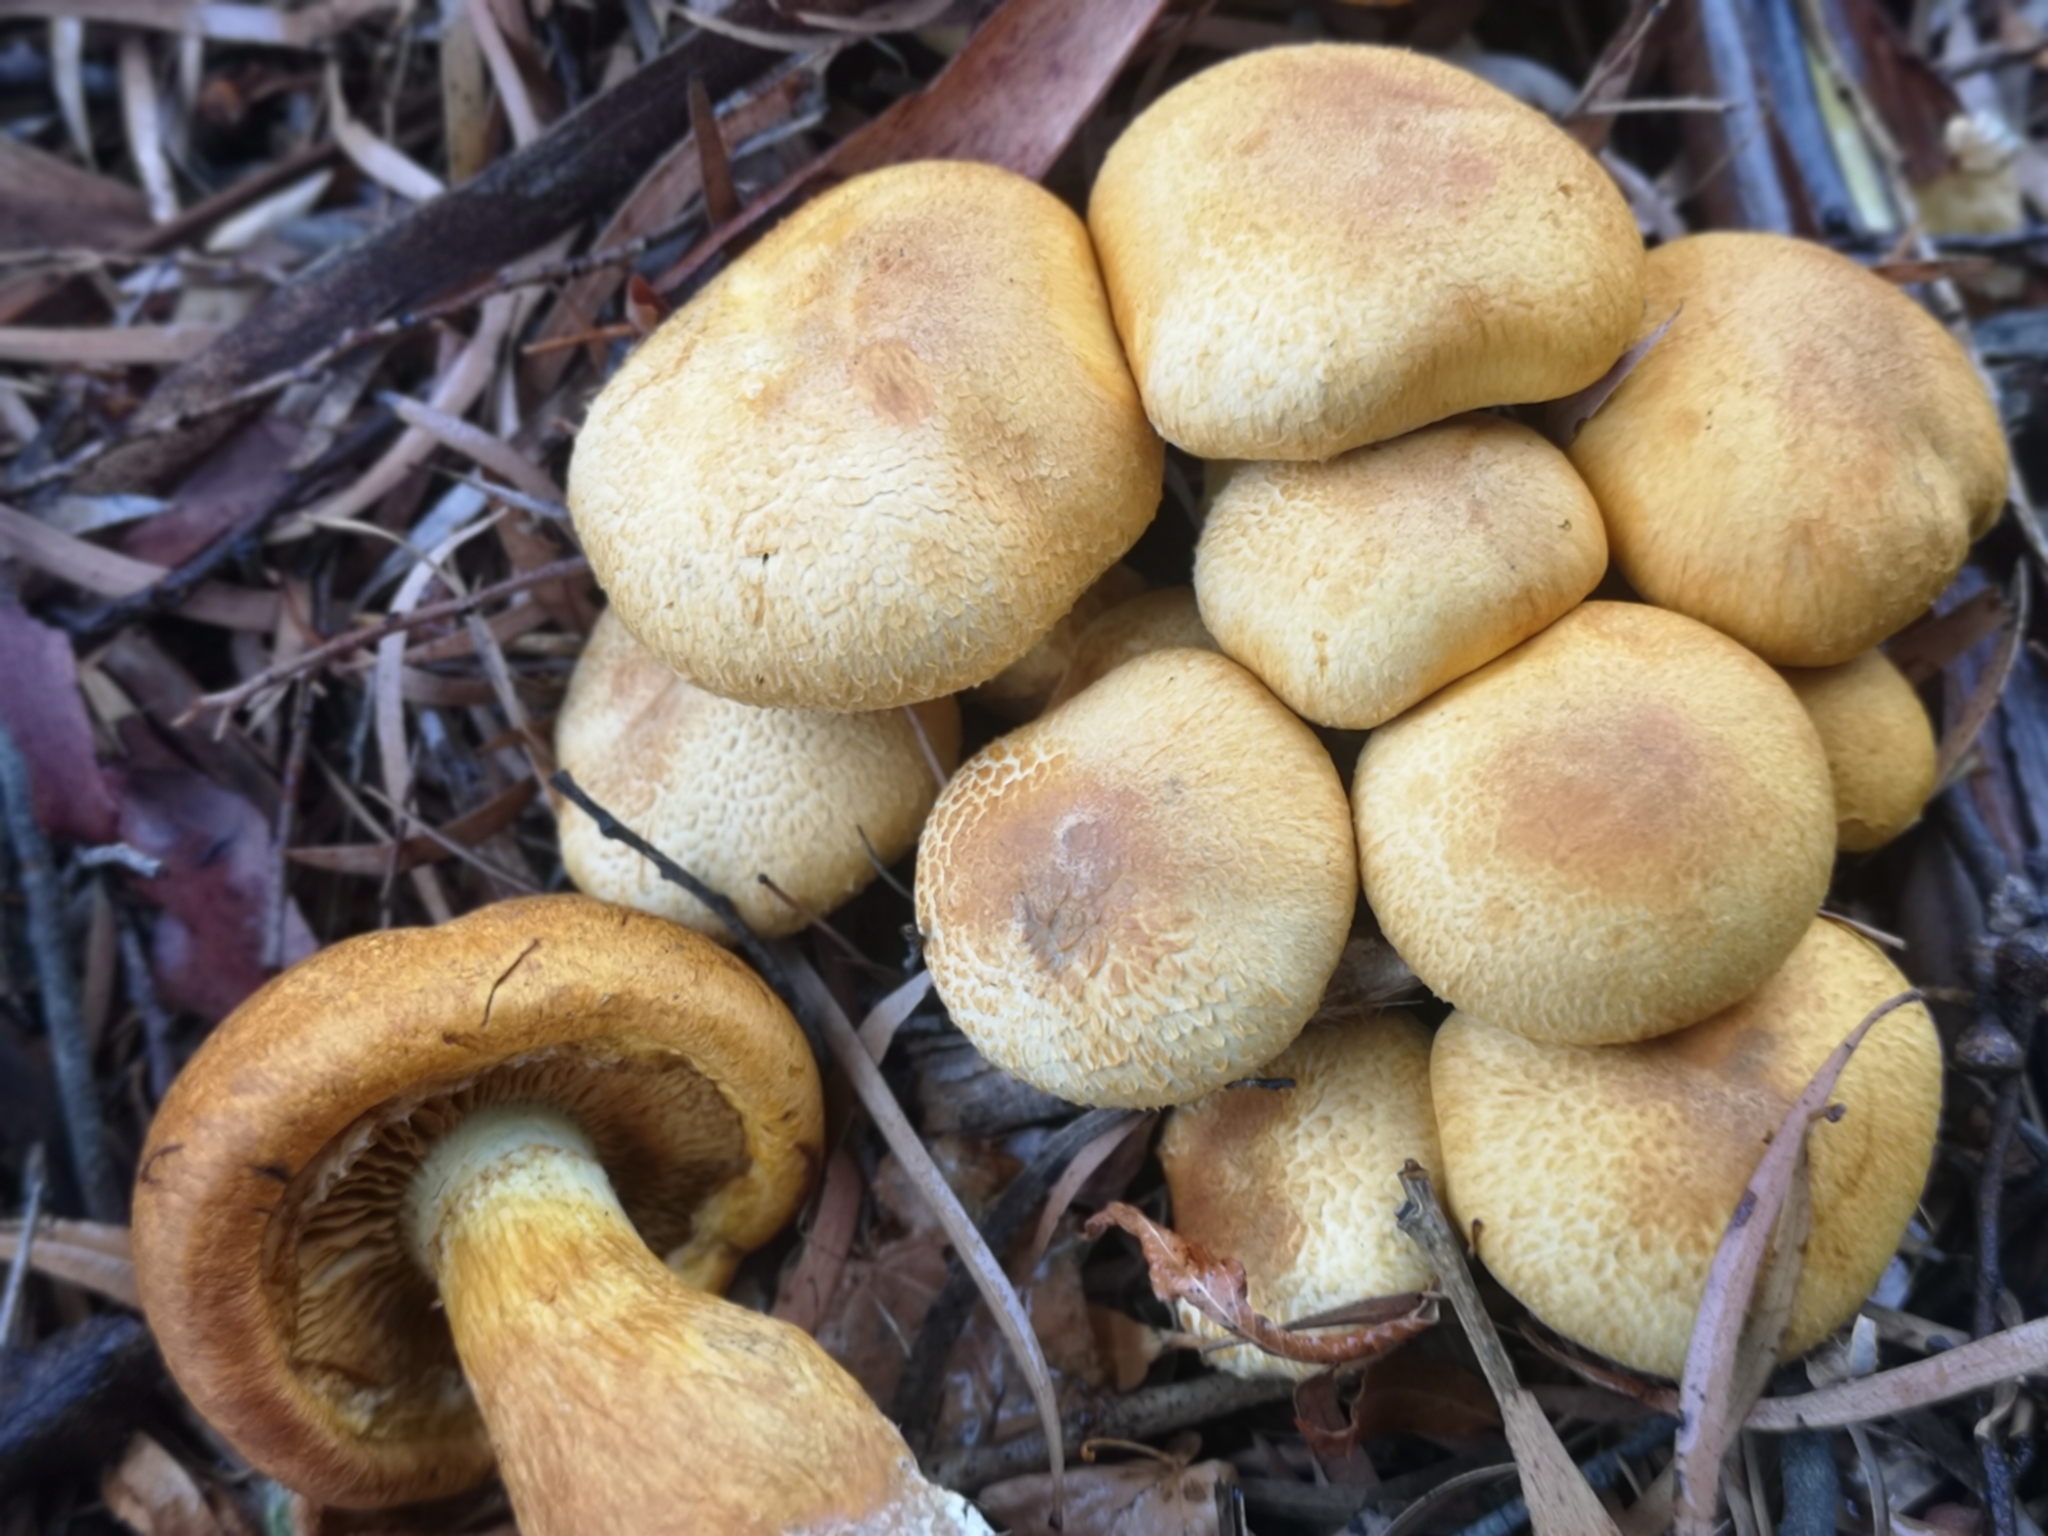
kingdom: Fungi
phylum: Basidiomycota
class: Agaricomycetes
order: Agaricales
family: Hymenogastraceae
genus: Gymnopilus
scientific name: Gymnopilus junonius
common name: Spectacular rustgill
